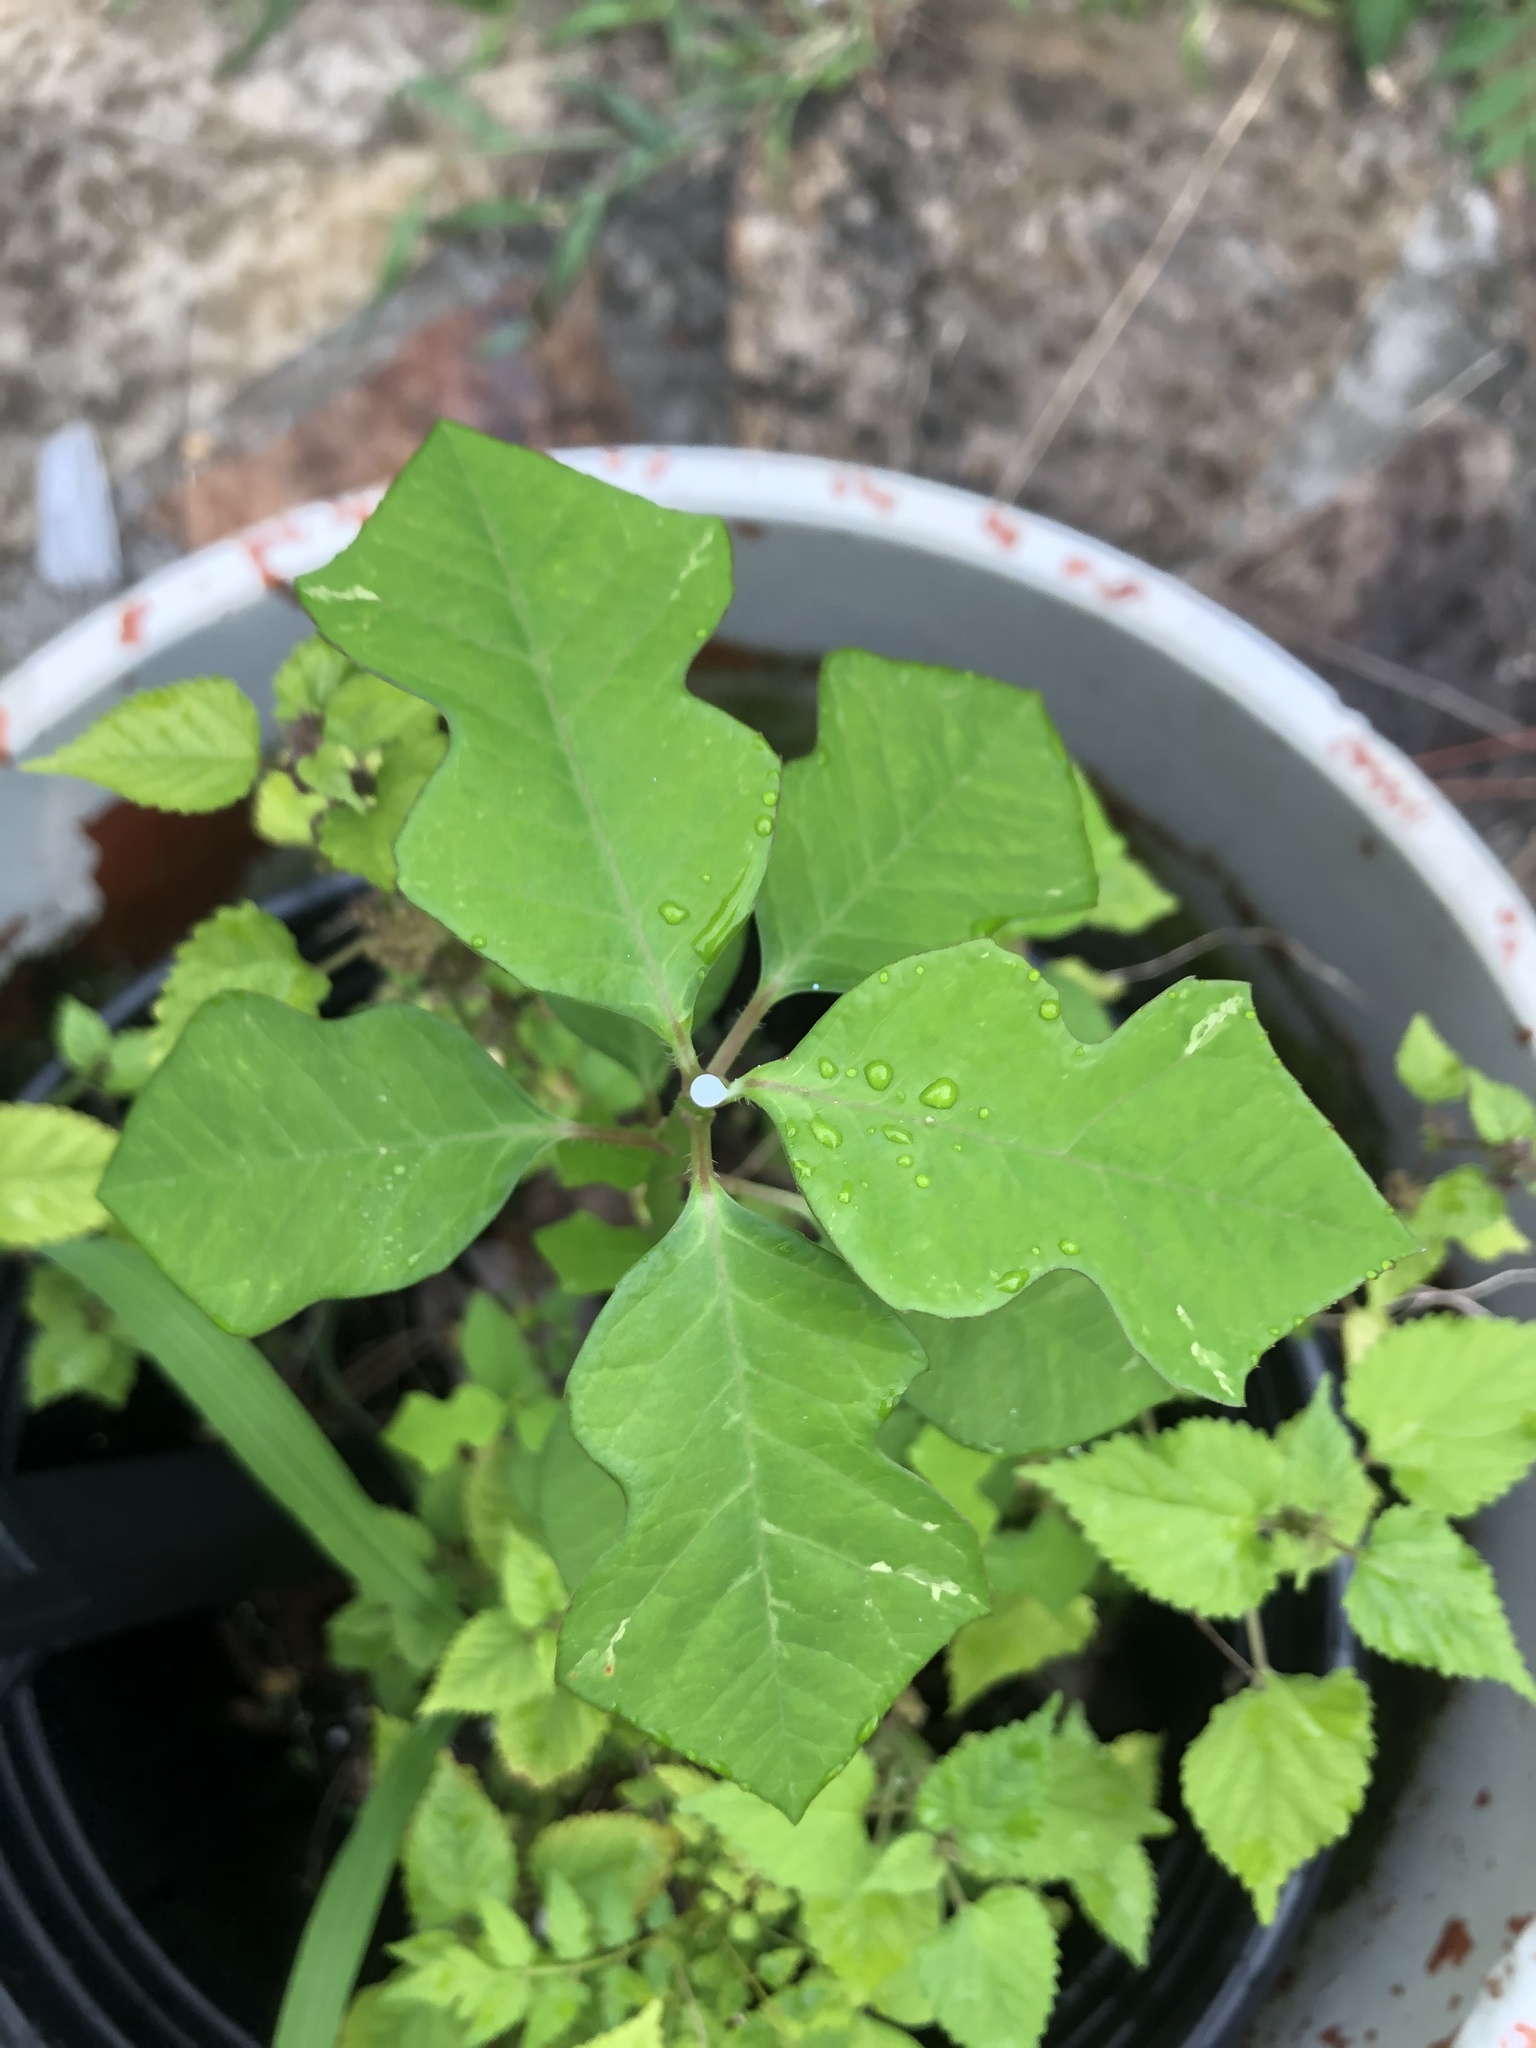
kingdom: Plantae
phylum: Tracheophyta
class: Magnoliopsida
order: Malpighiales
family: Euphorbiaceae
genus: Euphorbia
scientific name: Euphorbia heterophylla
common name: Mexican fireplant
